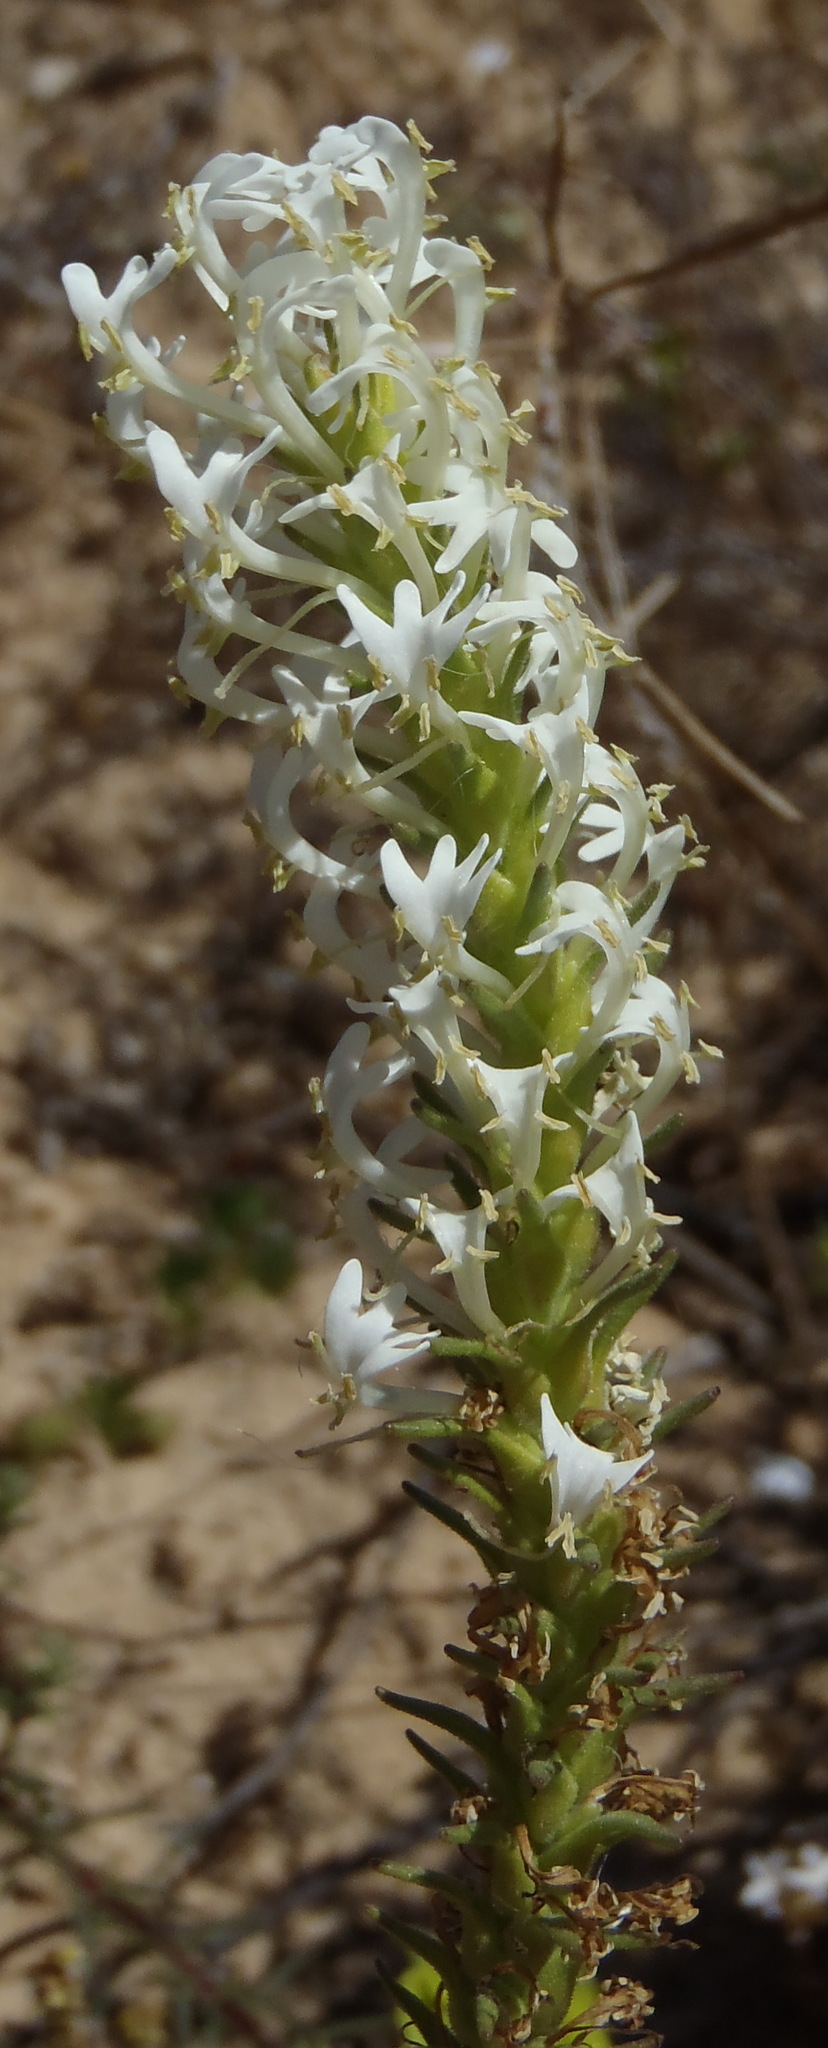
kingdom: Plantae
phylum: Tracheophyta
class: Magnoliopsida
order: Lamiales
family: Scrophulariaceae
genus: Hebenstretia
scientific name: Hebenstretia dentata
